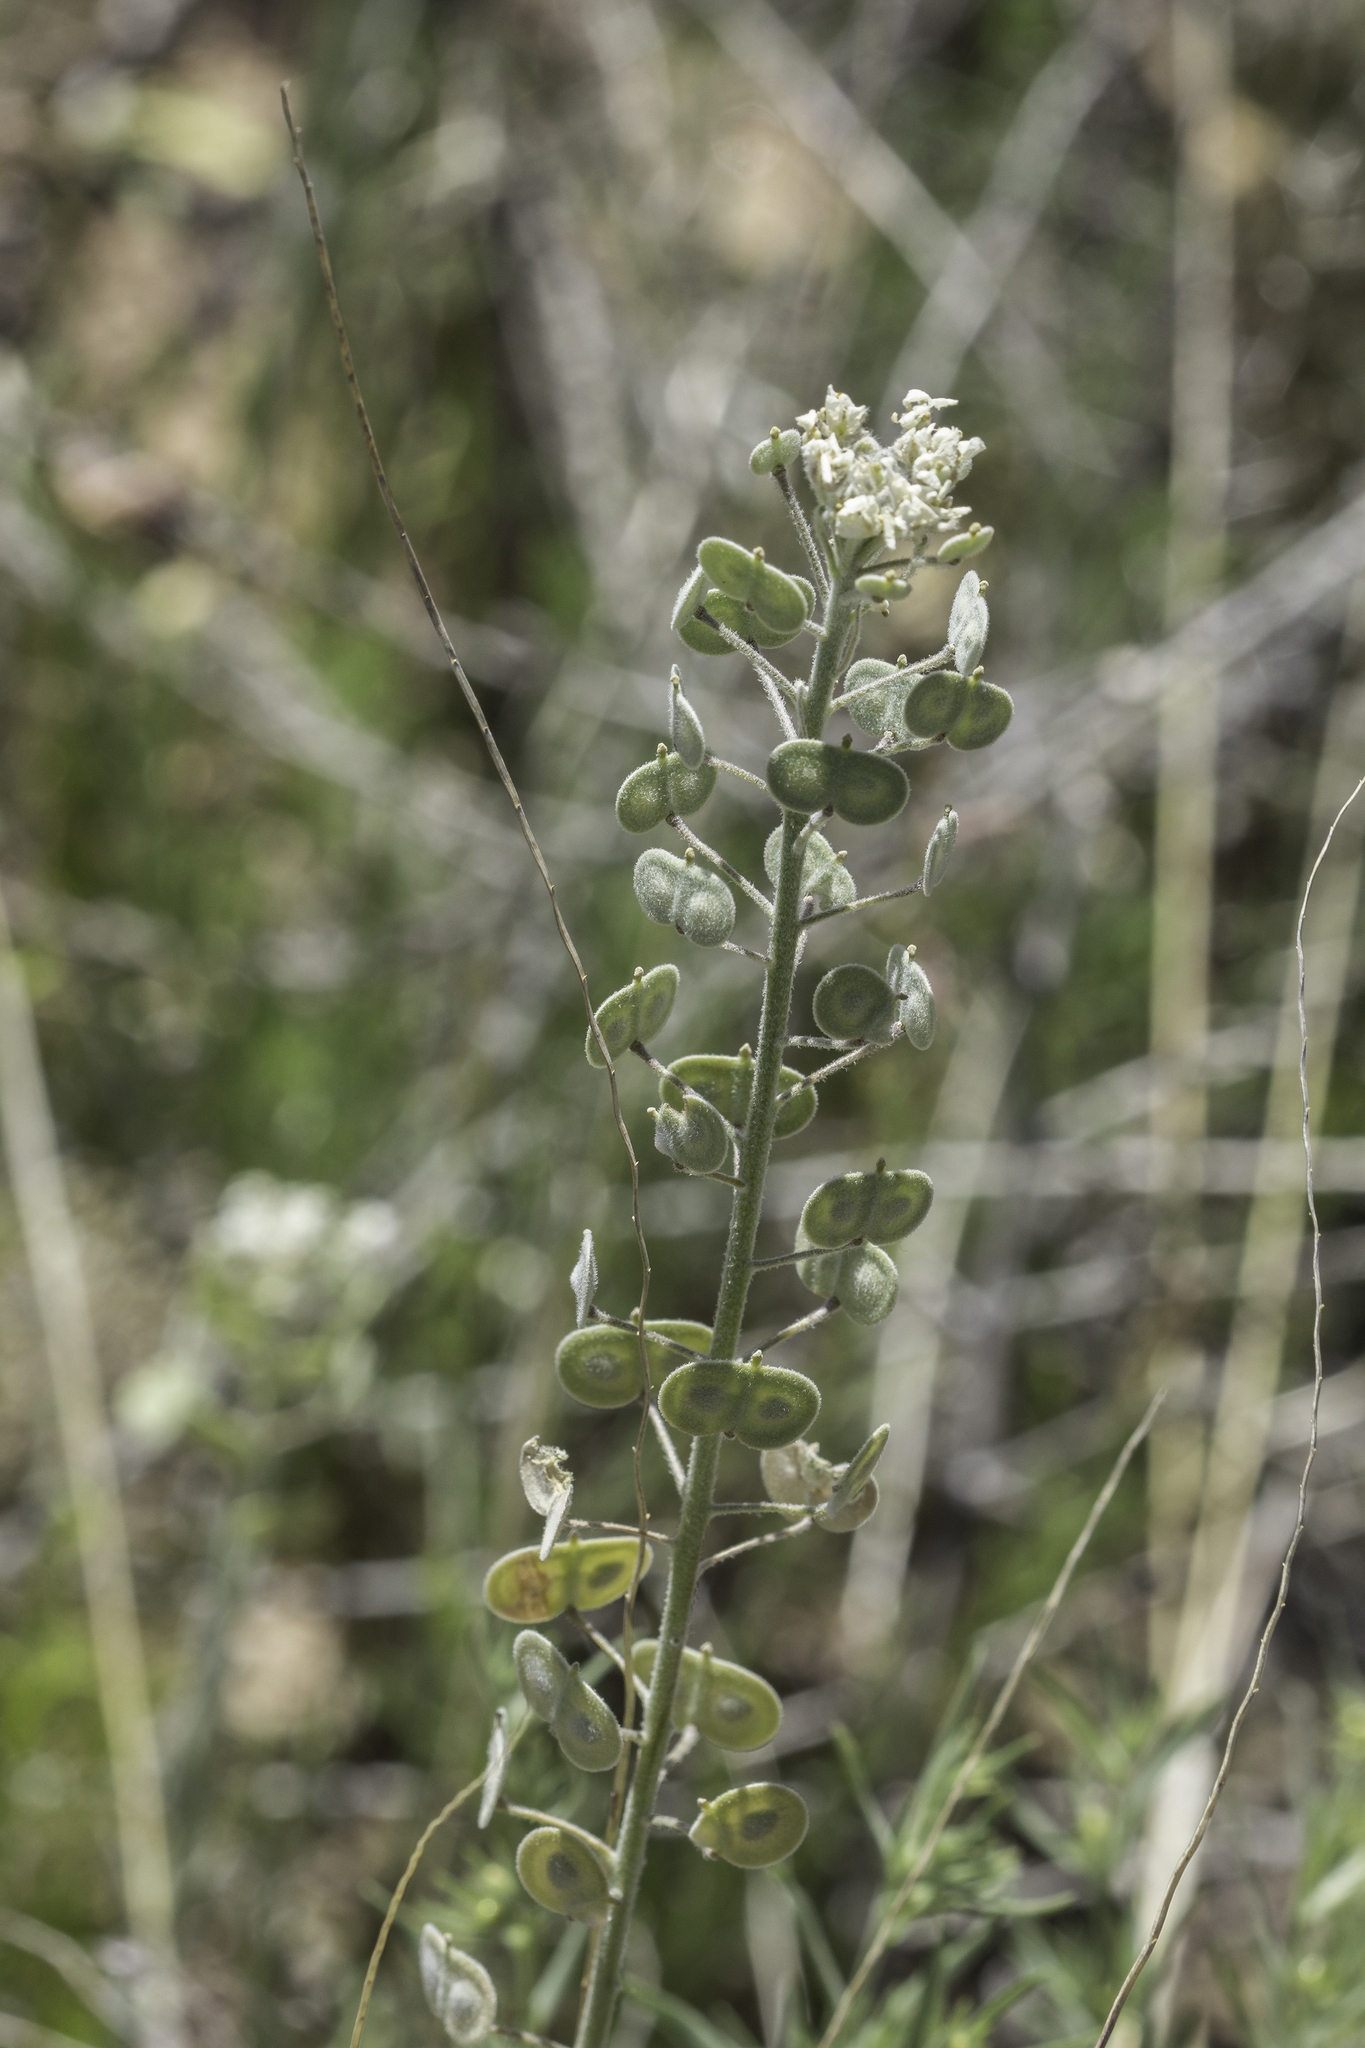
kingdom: Plantae
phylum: Tracheophyta
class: Magnoliopsida
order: Brassicales
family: Brassicaceae
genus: Dimorphocarpa
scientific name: Dimorphocarpa wislizenii
